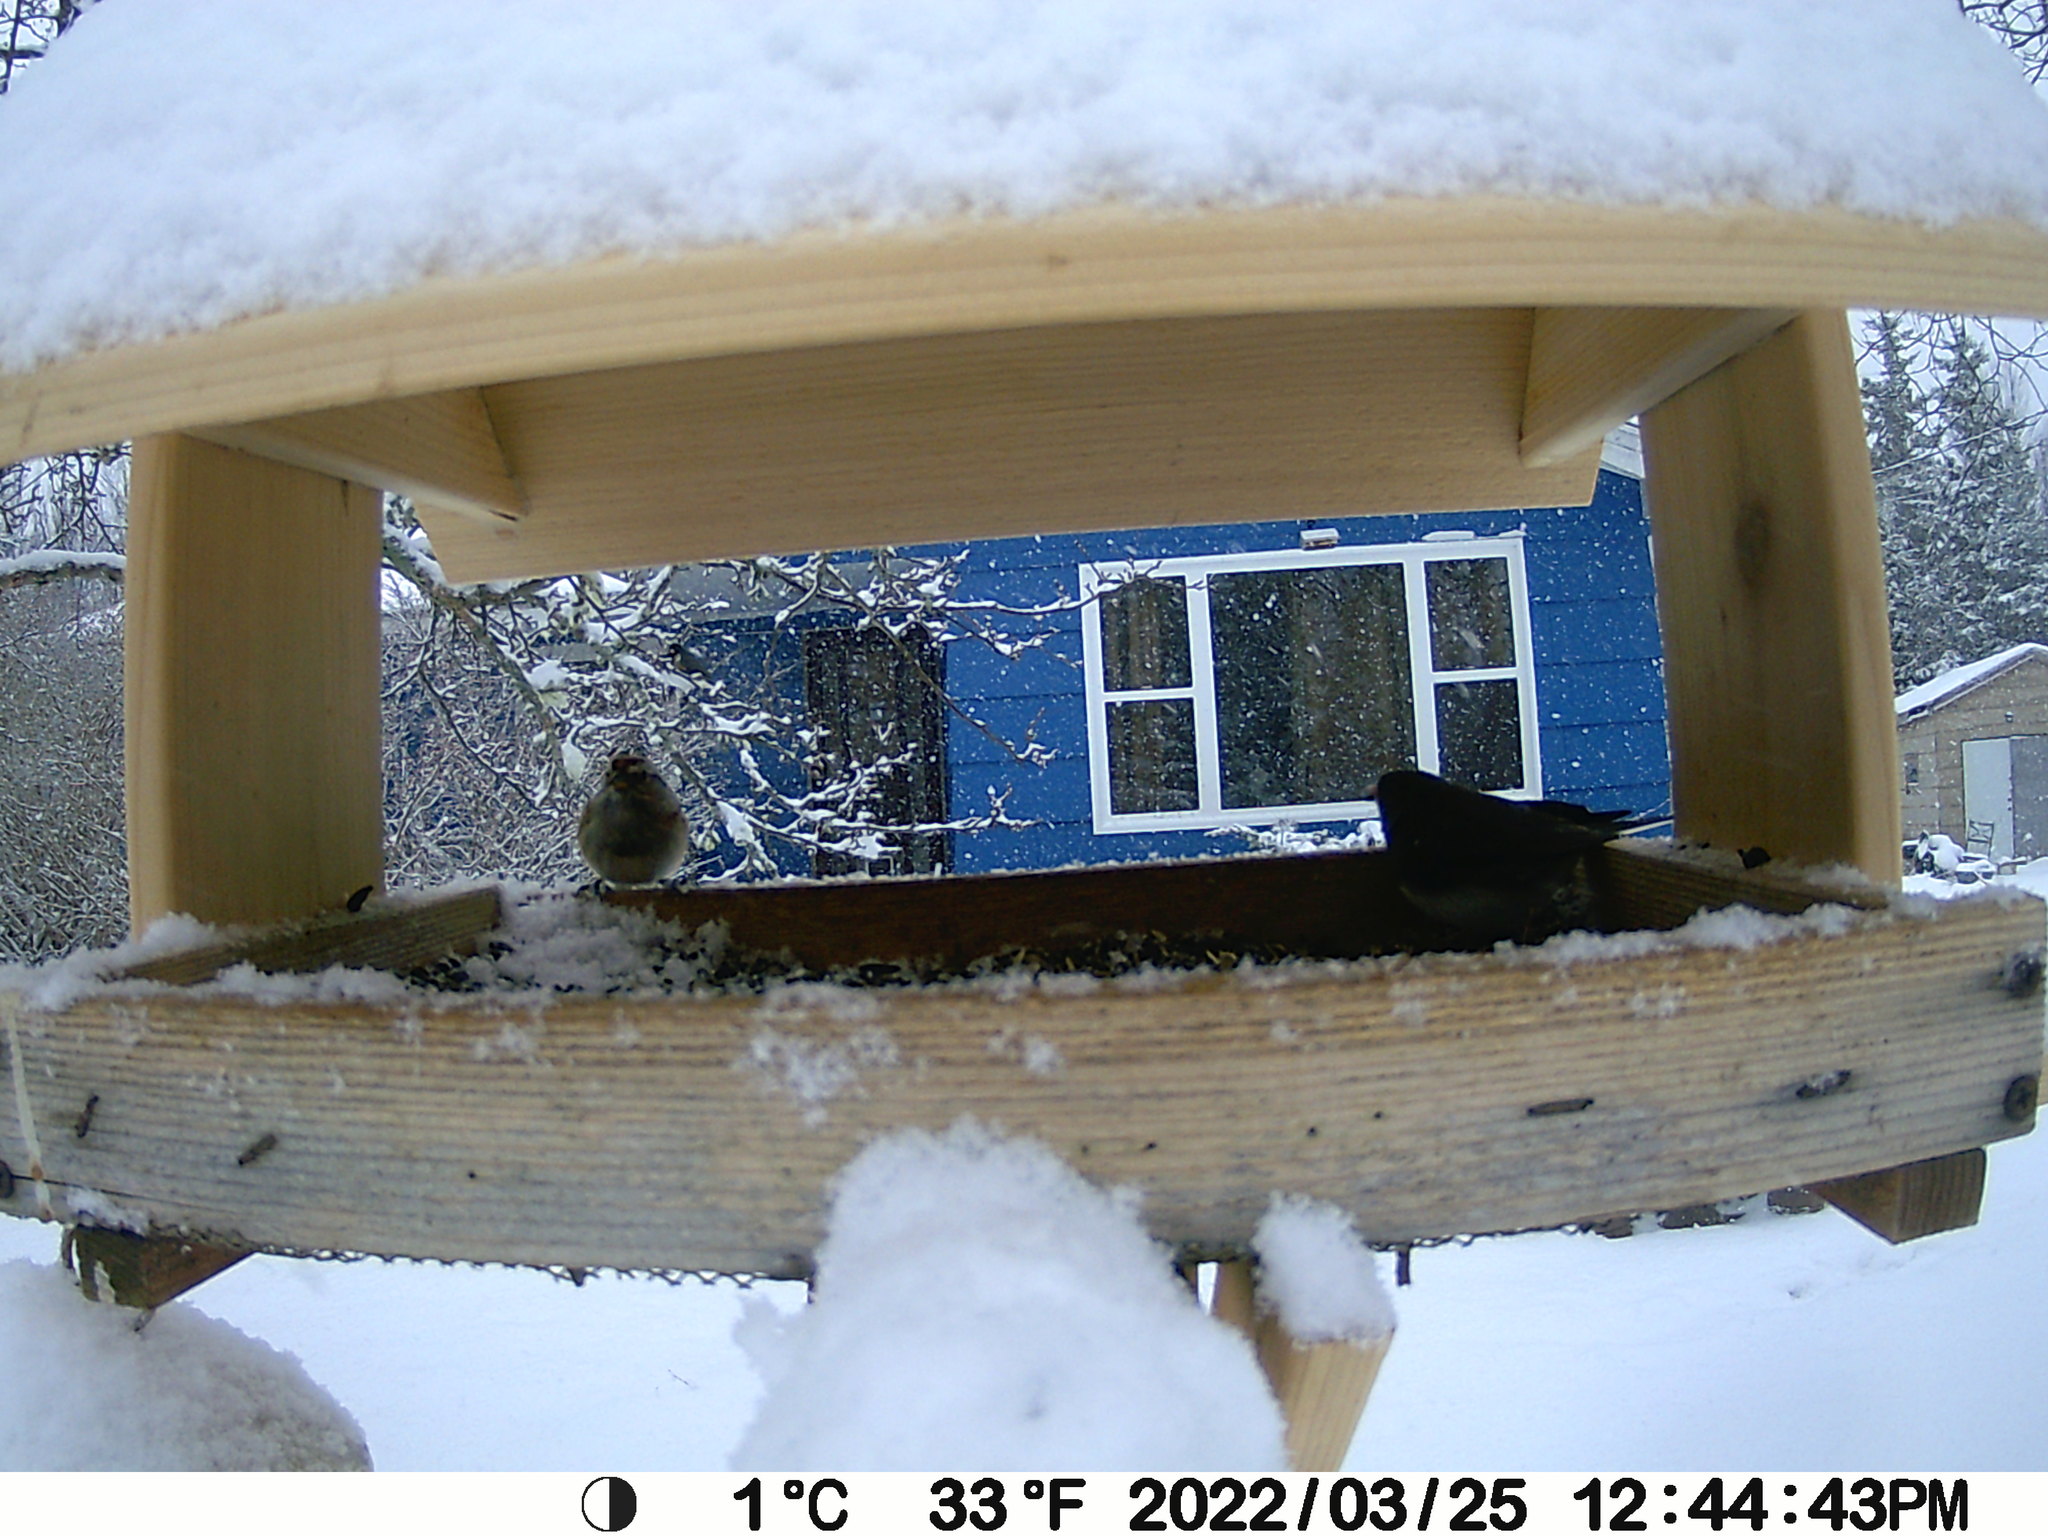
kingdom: Animalia
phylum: Chordata
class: Aves
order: Passeriformes
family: Passerellidae
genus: Spizelloides
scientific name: Spizelloides arborea
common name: American tree sparrow
